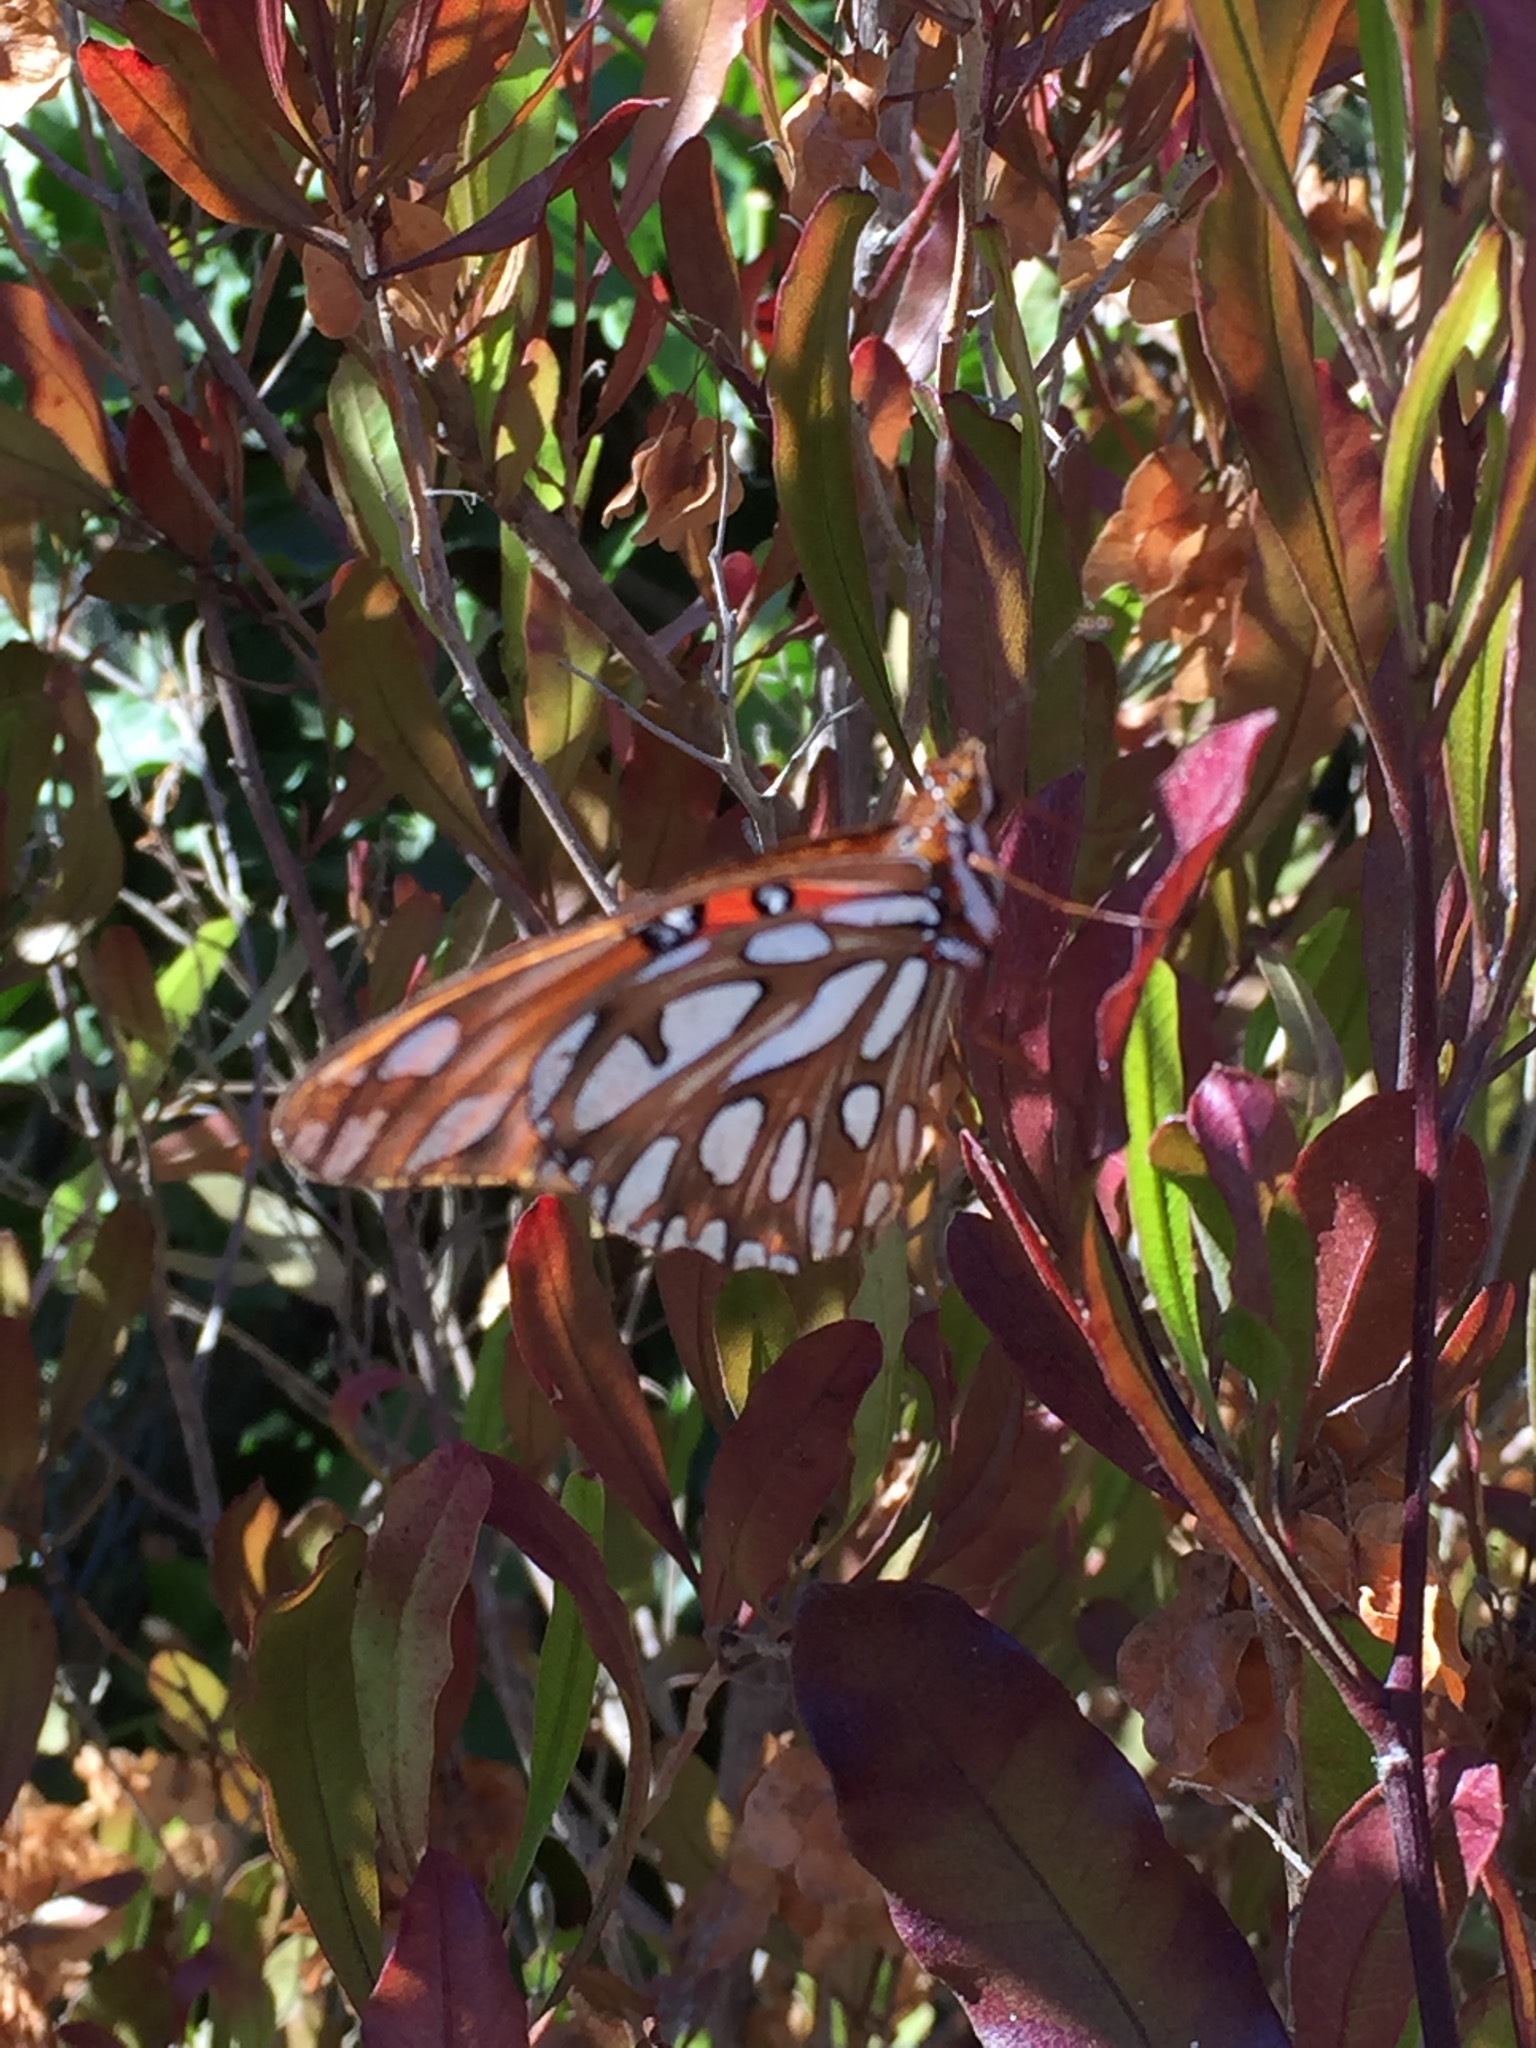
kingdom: Animalia
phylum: Arthropoda
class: Insecta
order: Lepidoptera
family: Nymphalidae
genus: Dione
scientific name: Dione vanillae
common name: Gulf fritillary
